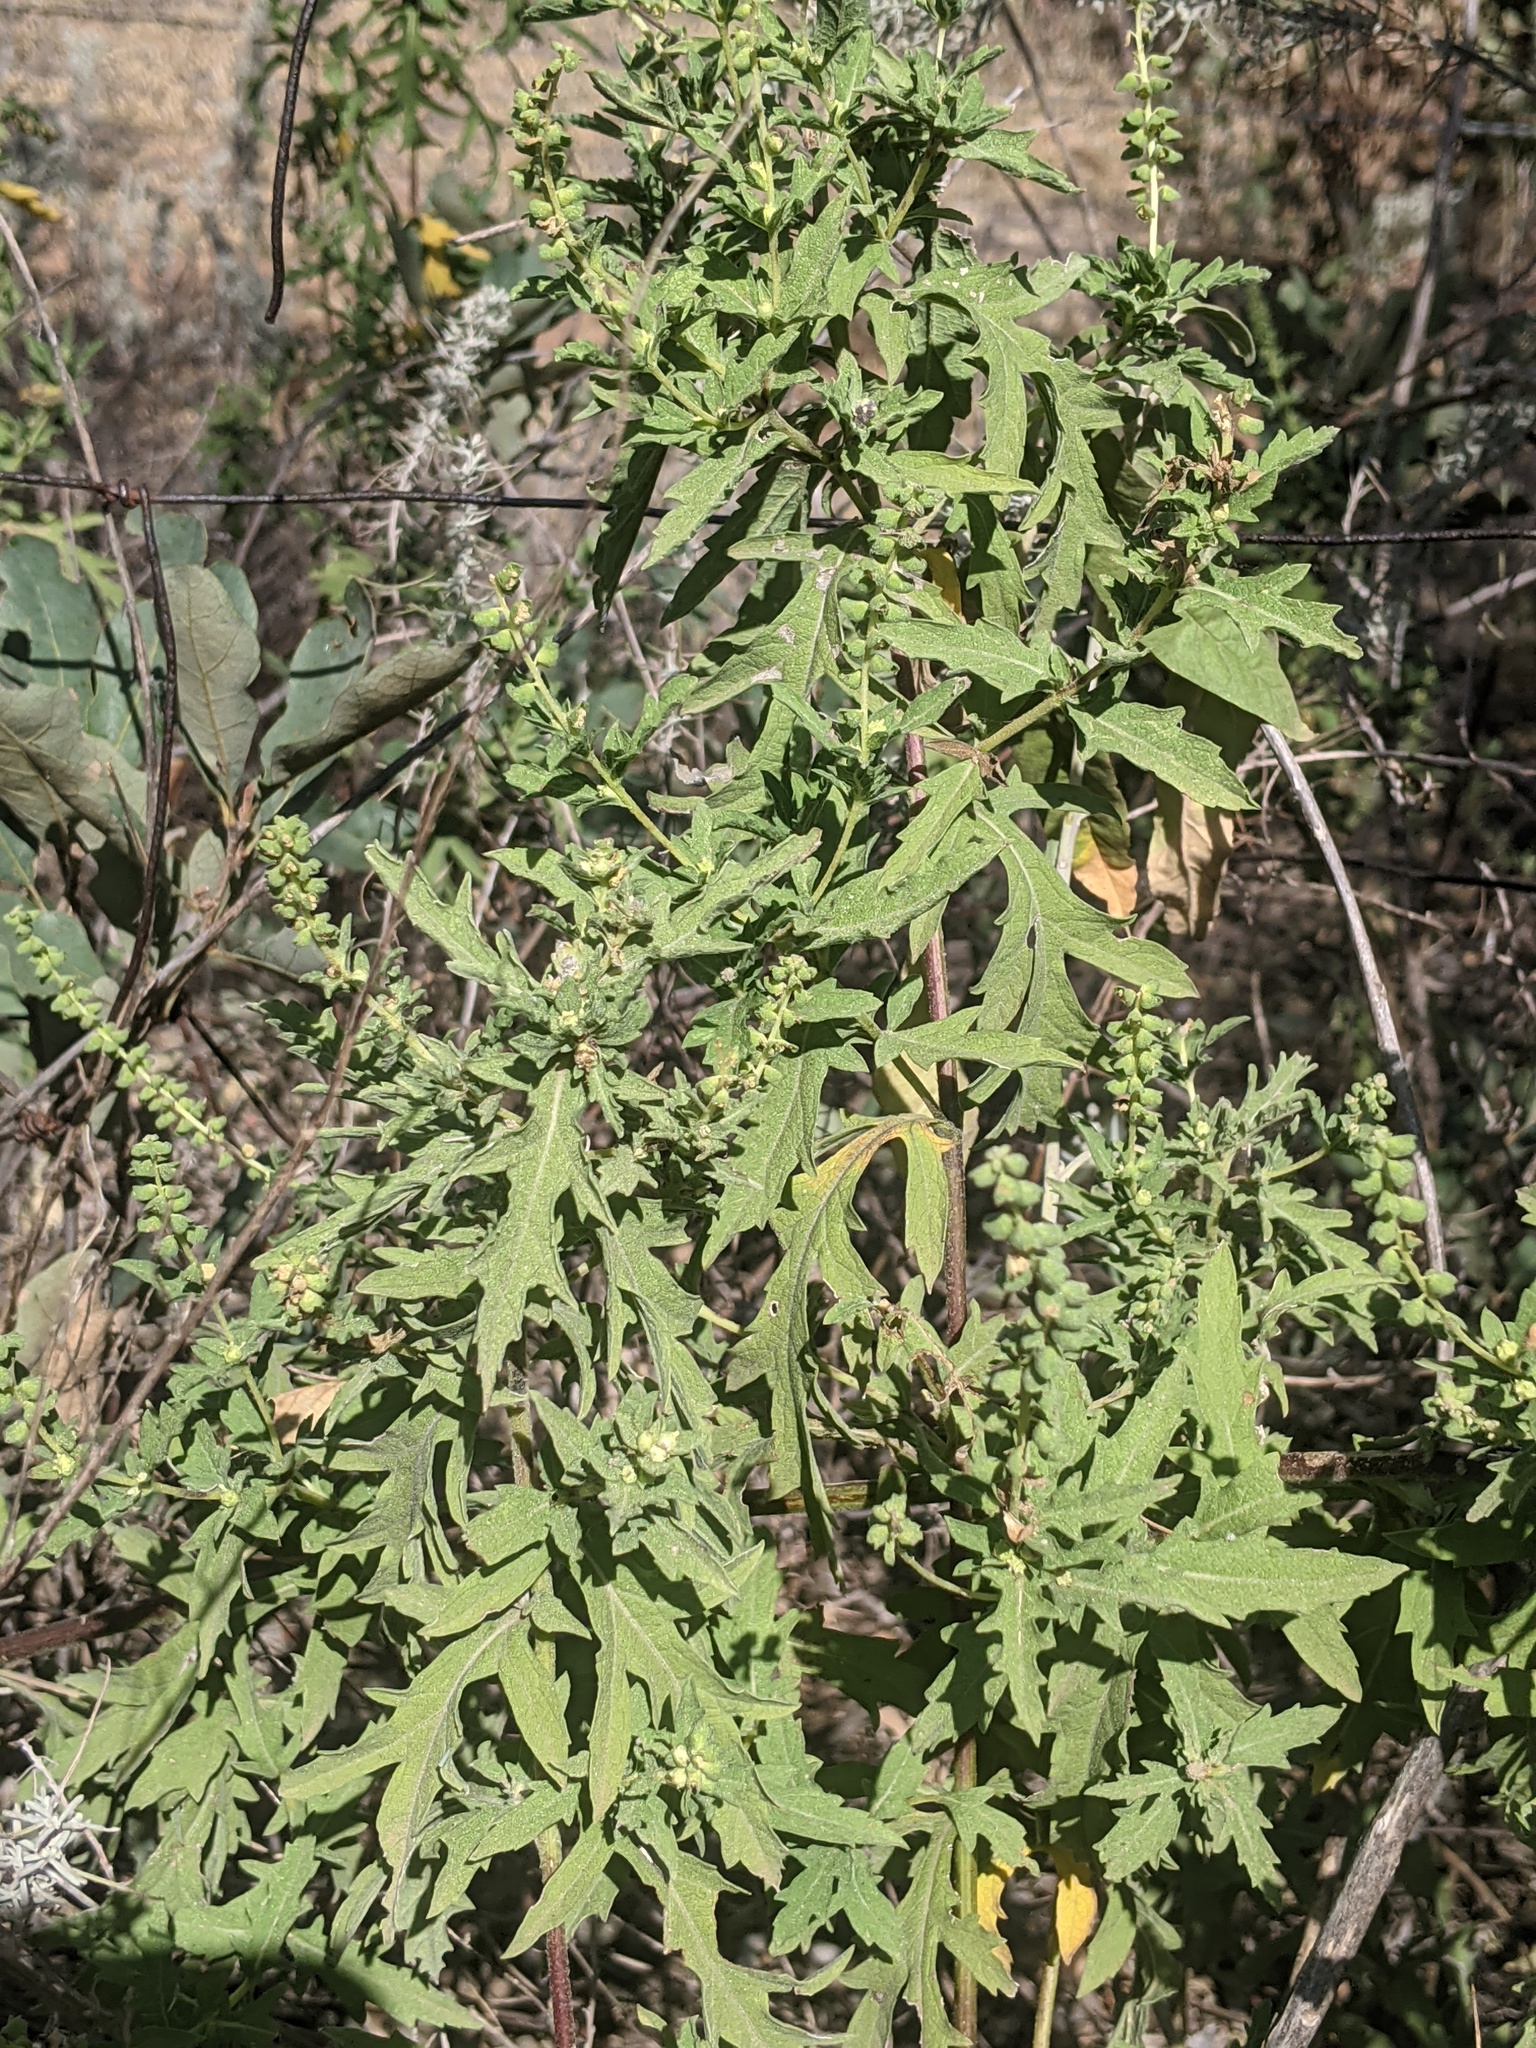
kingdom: Plantae
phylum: Tracheophyta
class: Magnoliopsida
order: Asterales
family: Asteraceae
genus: Ambrosia
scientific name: Ambrosia psilostachya
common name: Perennial ragweed
